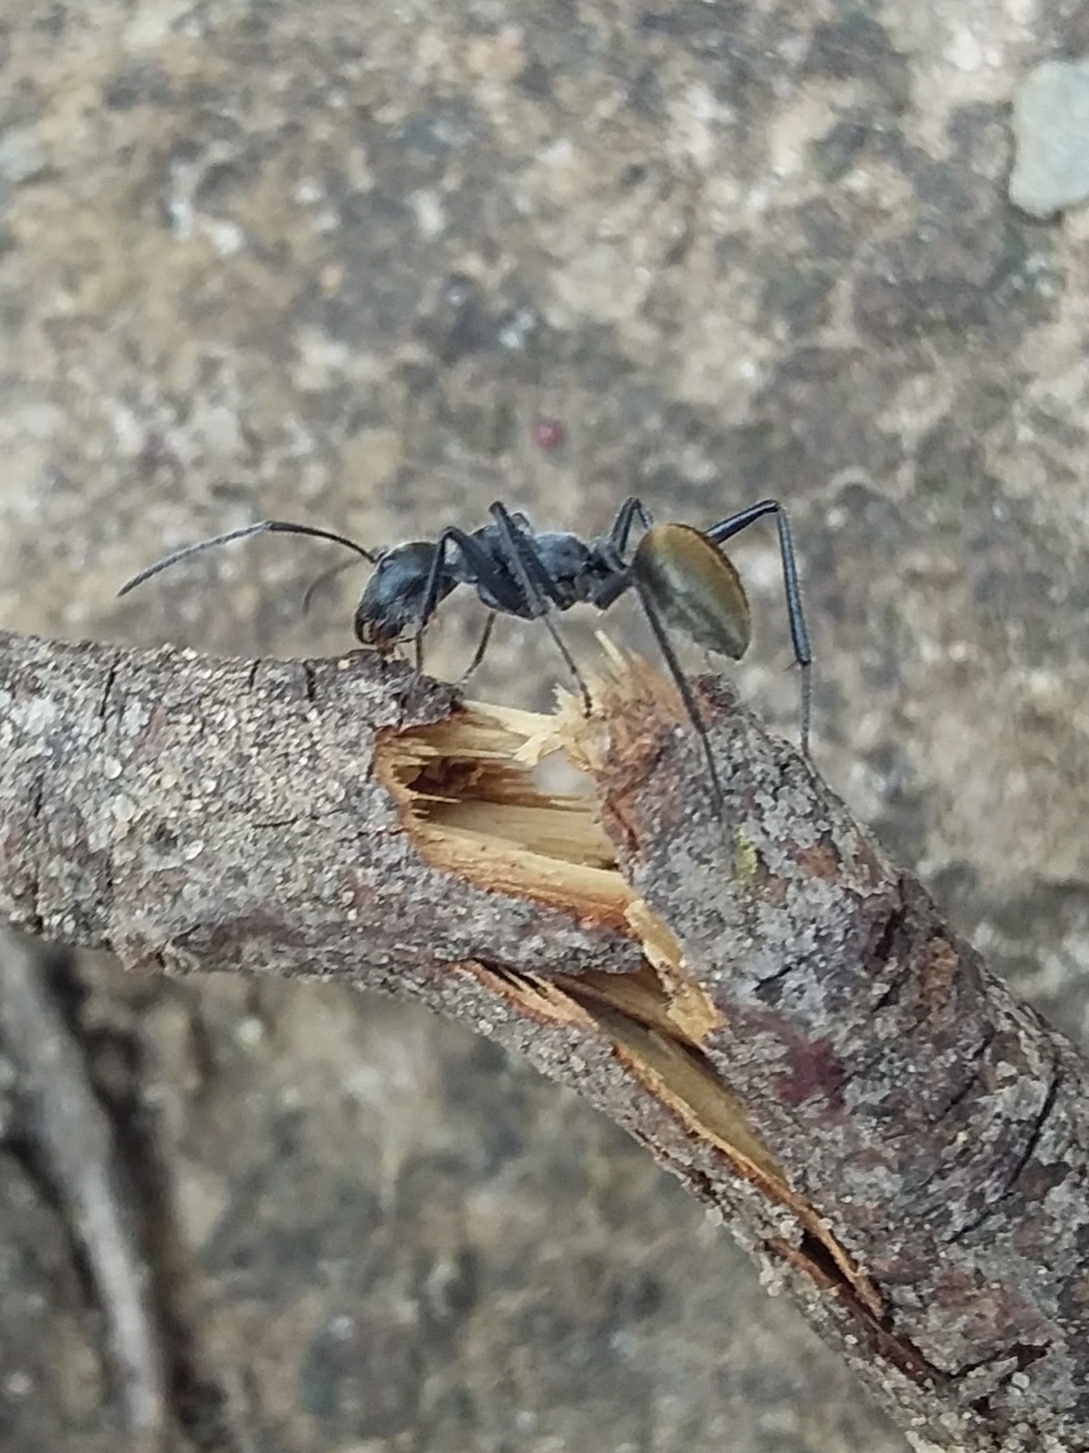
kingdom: Animalia
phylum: Arthropoda
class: Insecta
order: Hymenoptera
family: Formicidae
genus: Camponotus
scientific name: Camponotus suffusus
